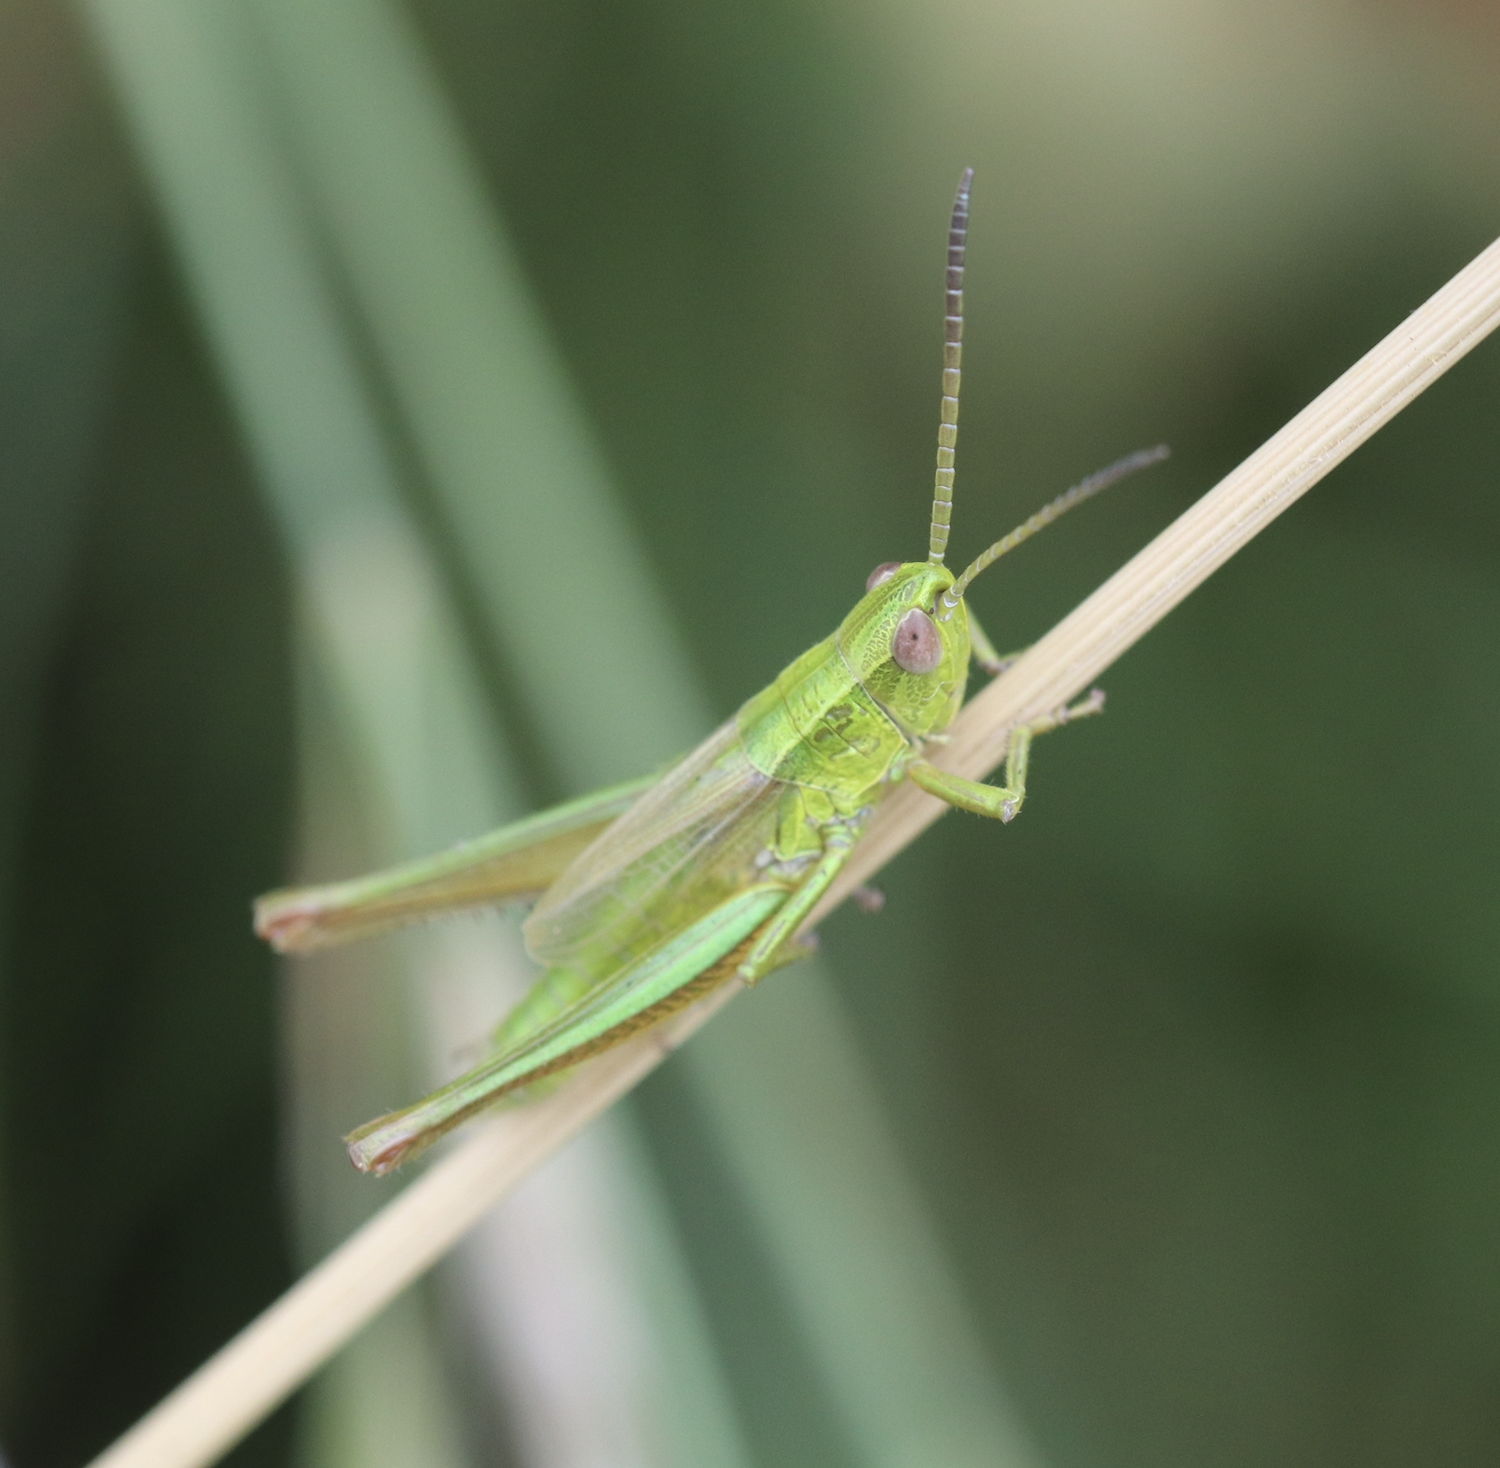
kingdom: Animalia
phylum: Arthropoda
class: Insecta
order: Orthoptera
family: Acrididae
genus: Euthystira
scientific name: Euthystira brachyptera
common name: Small gold grasshopper
